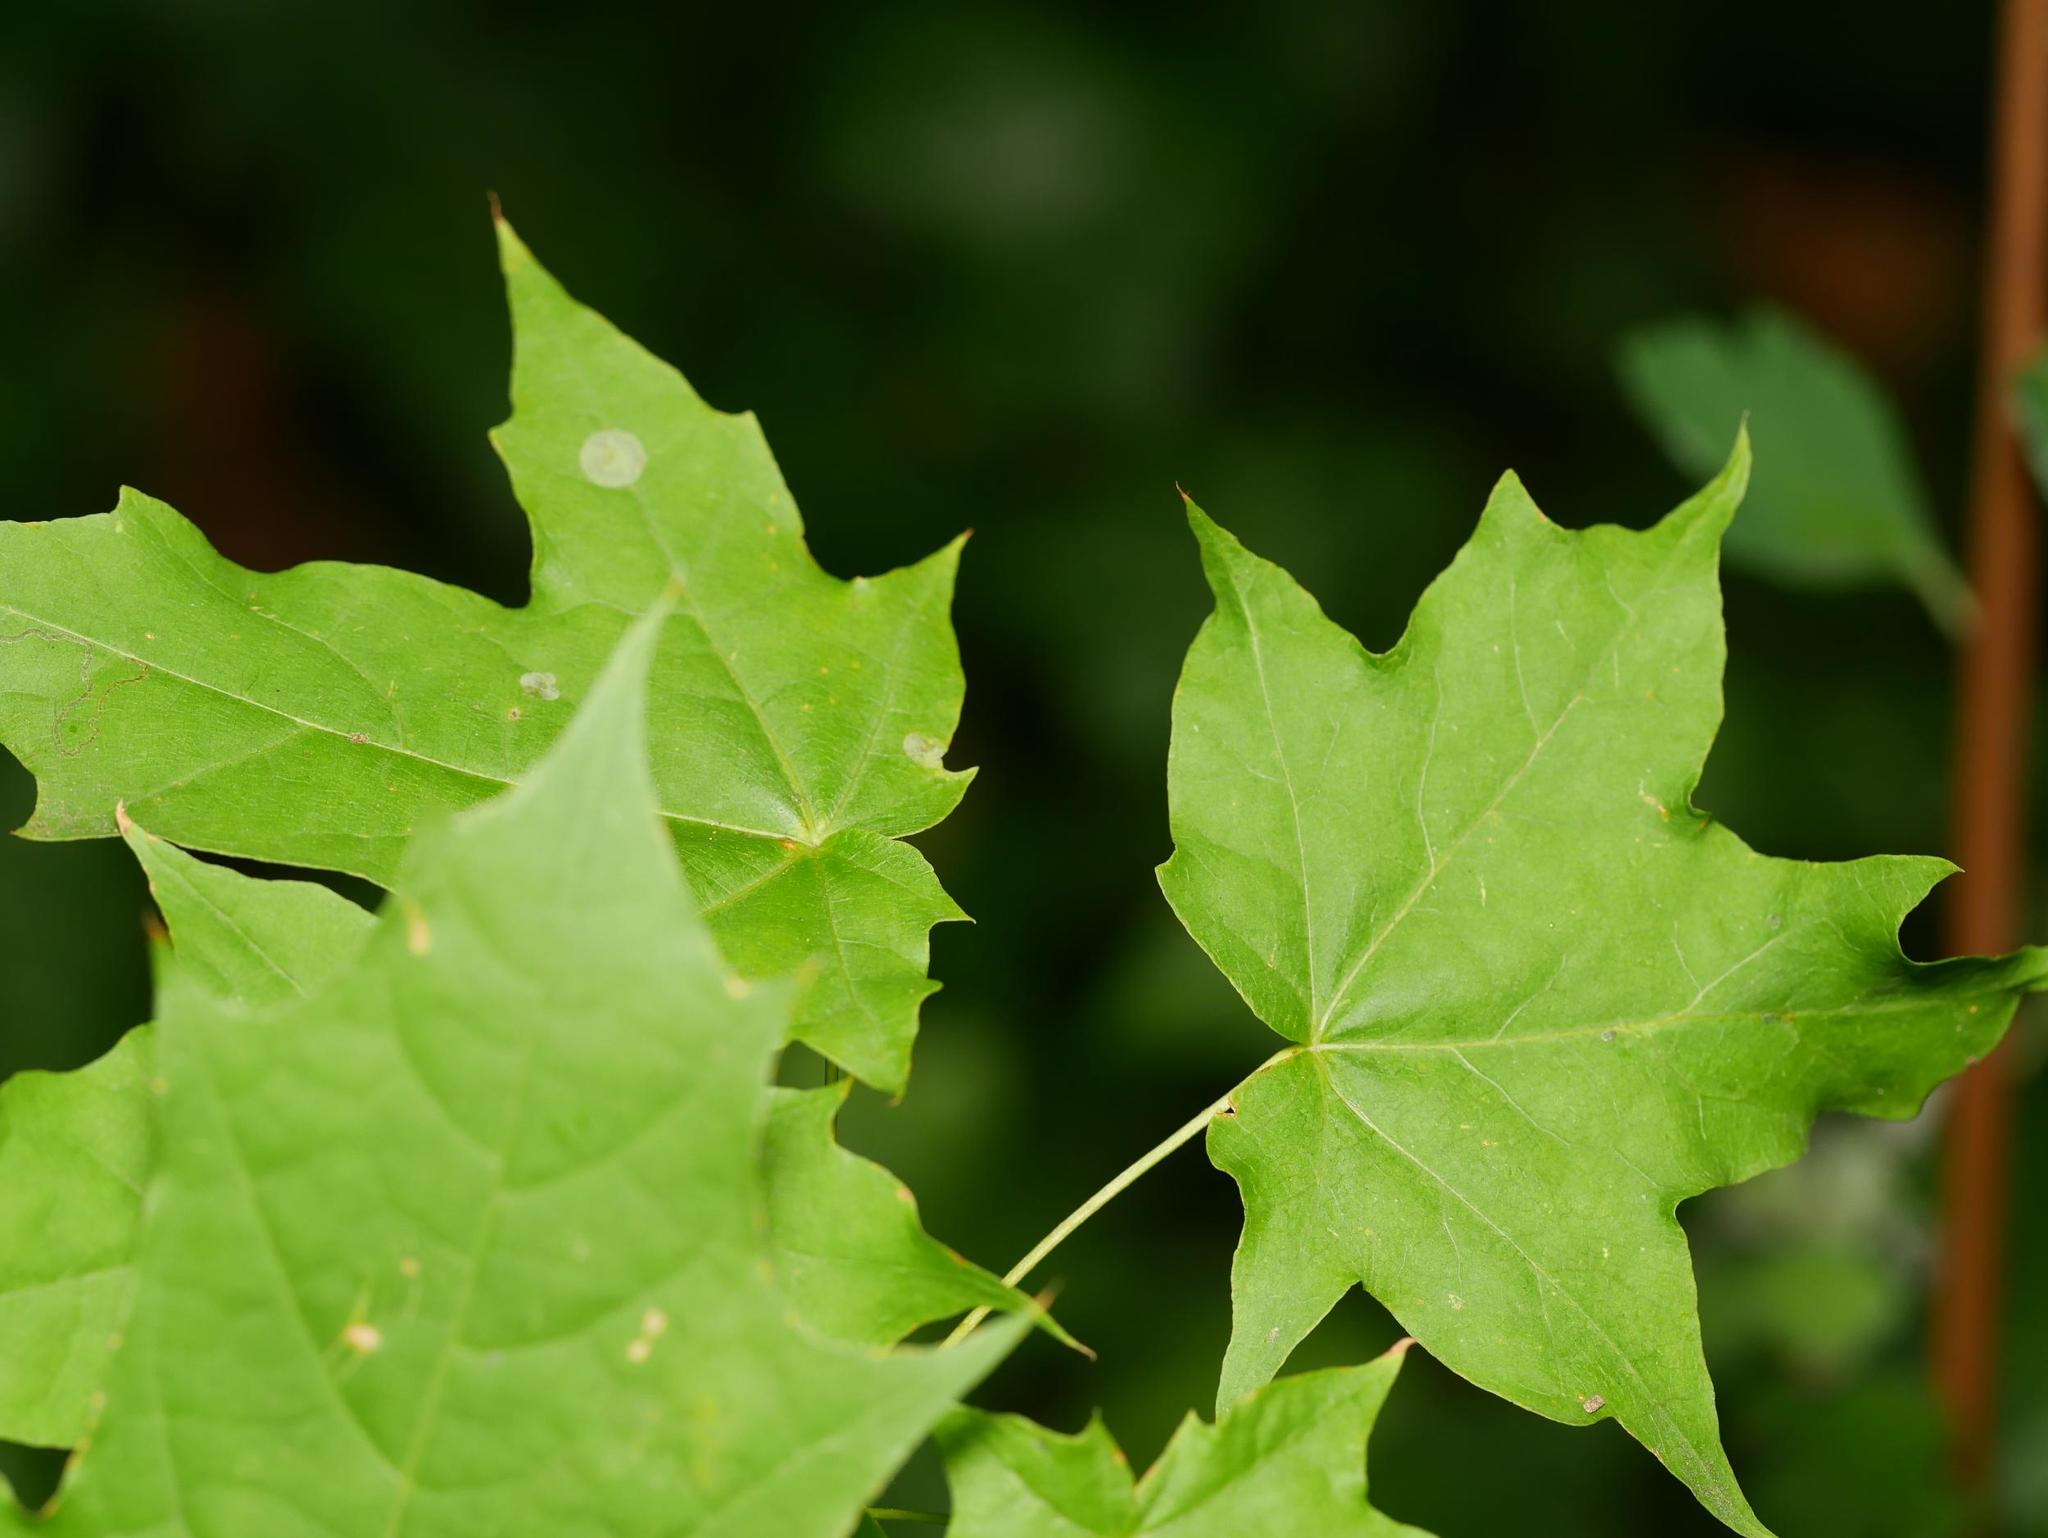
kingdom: Plantae
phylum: Tracheophyta
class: Magnoliopsida
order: Sapindales
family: Sapindaceae
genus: Acer
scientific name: Acer platanoides
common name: Norway maple
